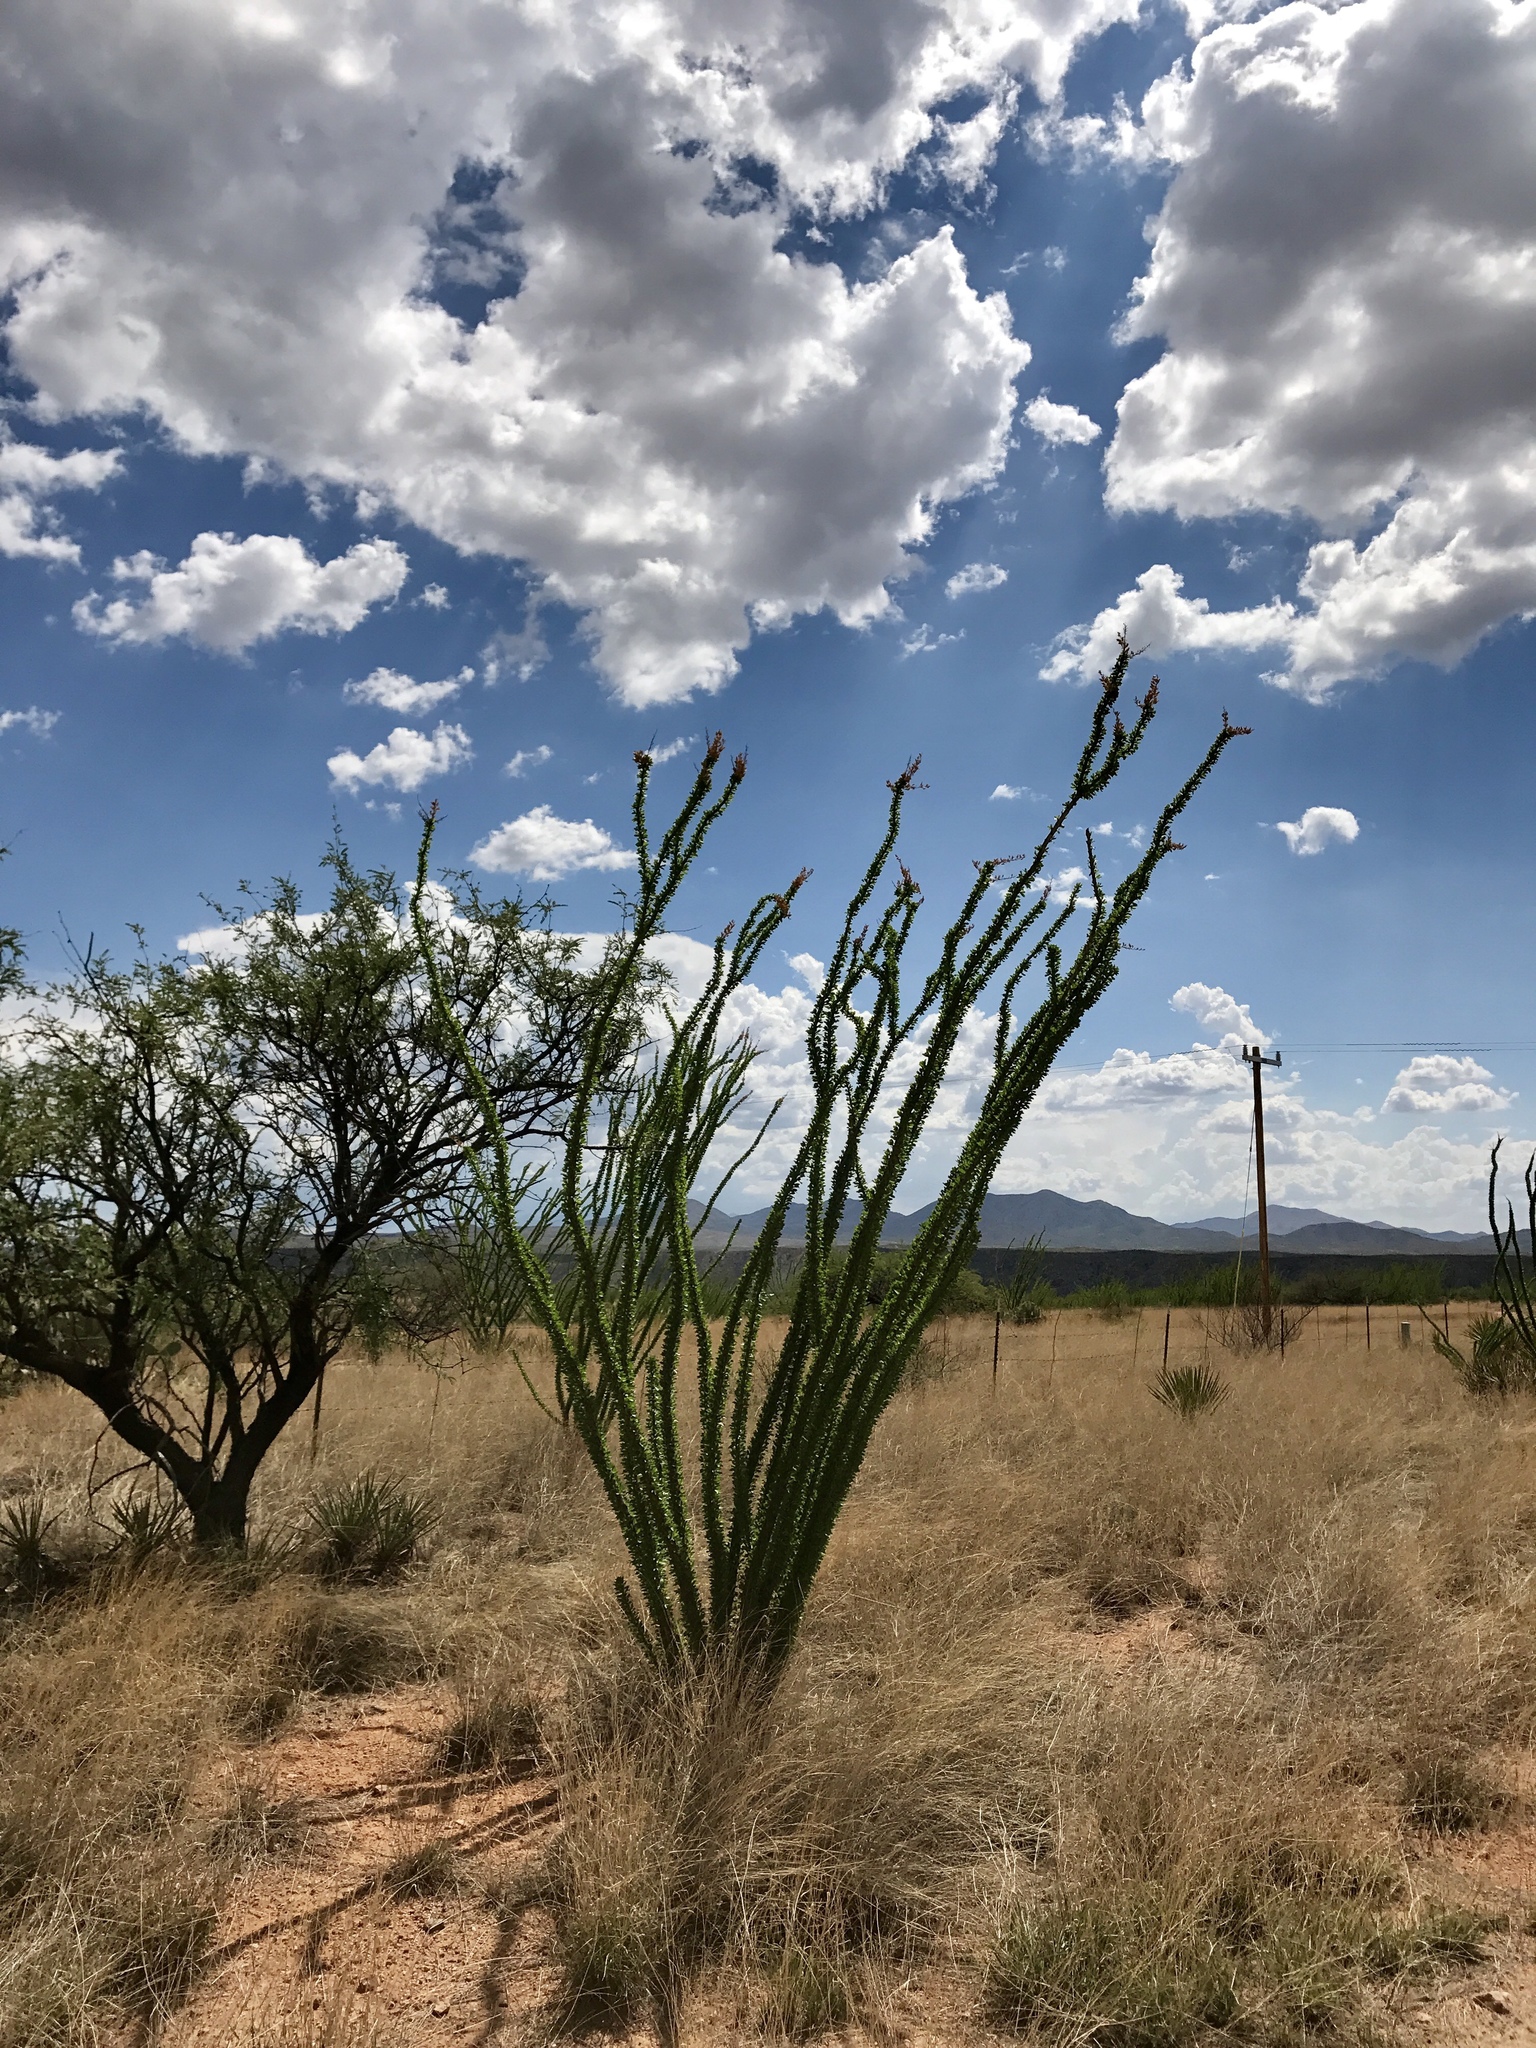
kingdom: Plantae
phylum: Tracheophyta
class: Magnoliopsida
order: Ericales
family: Fouquieriaceae
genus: Fouquieria
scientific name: Fouquieria splendens
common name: Vine-cactus
